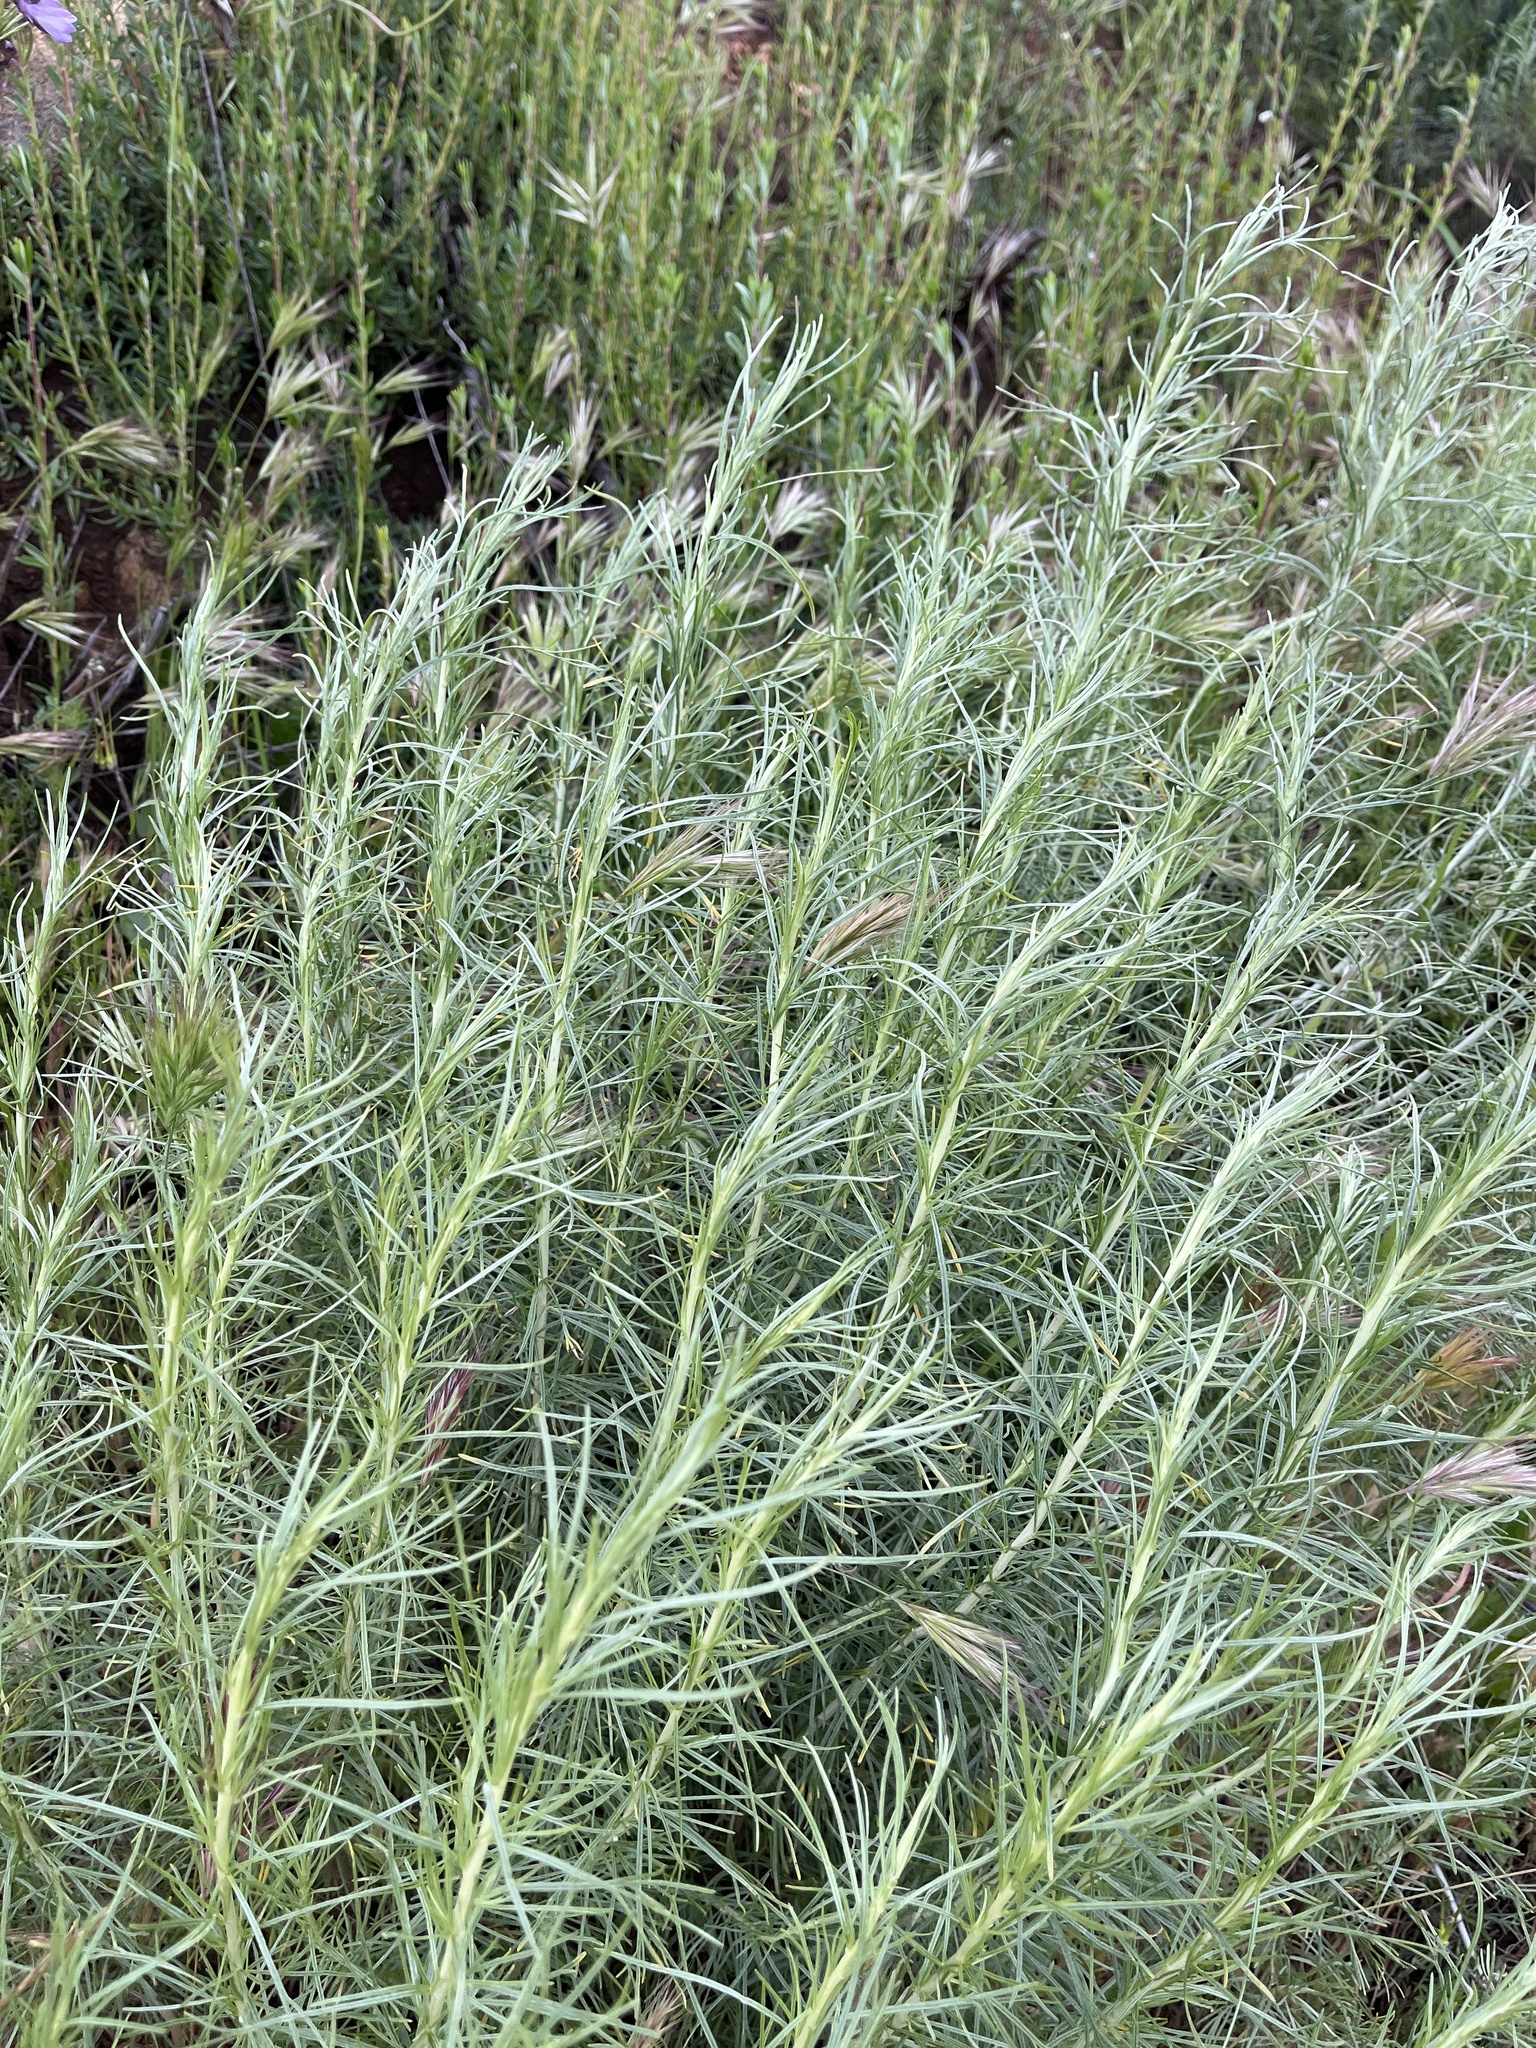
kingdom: Plantae
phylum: Tracheophyta
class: Magnoliopsida
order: Asterales
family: Asteraceae
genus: Artemisia
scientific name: Artemisia californica
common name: California sagebrush
